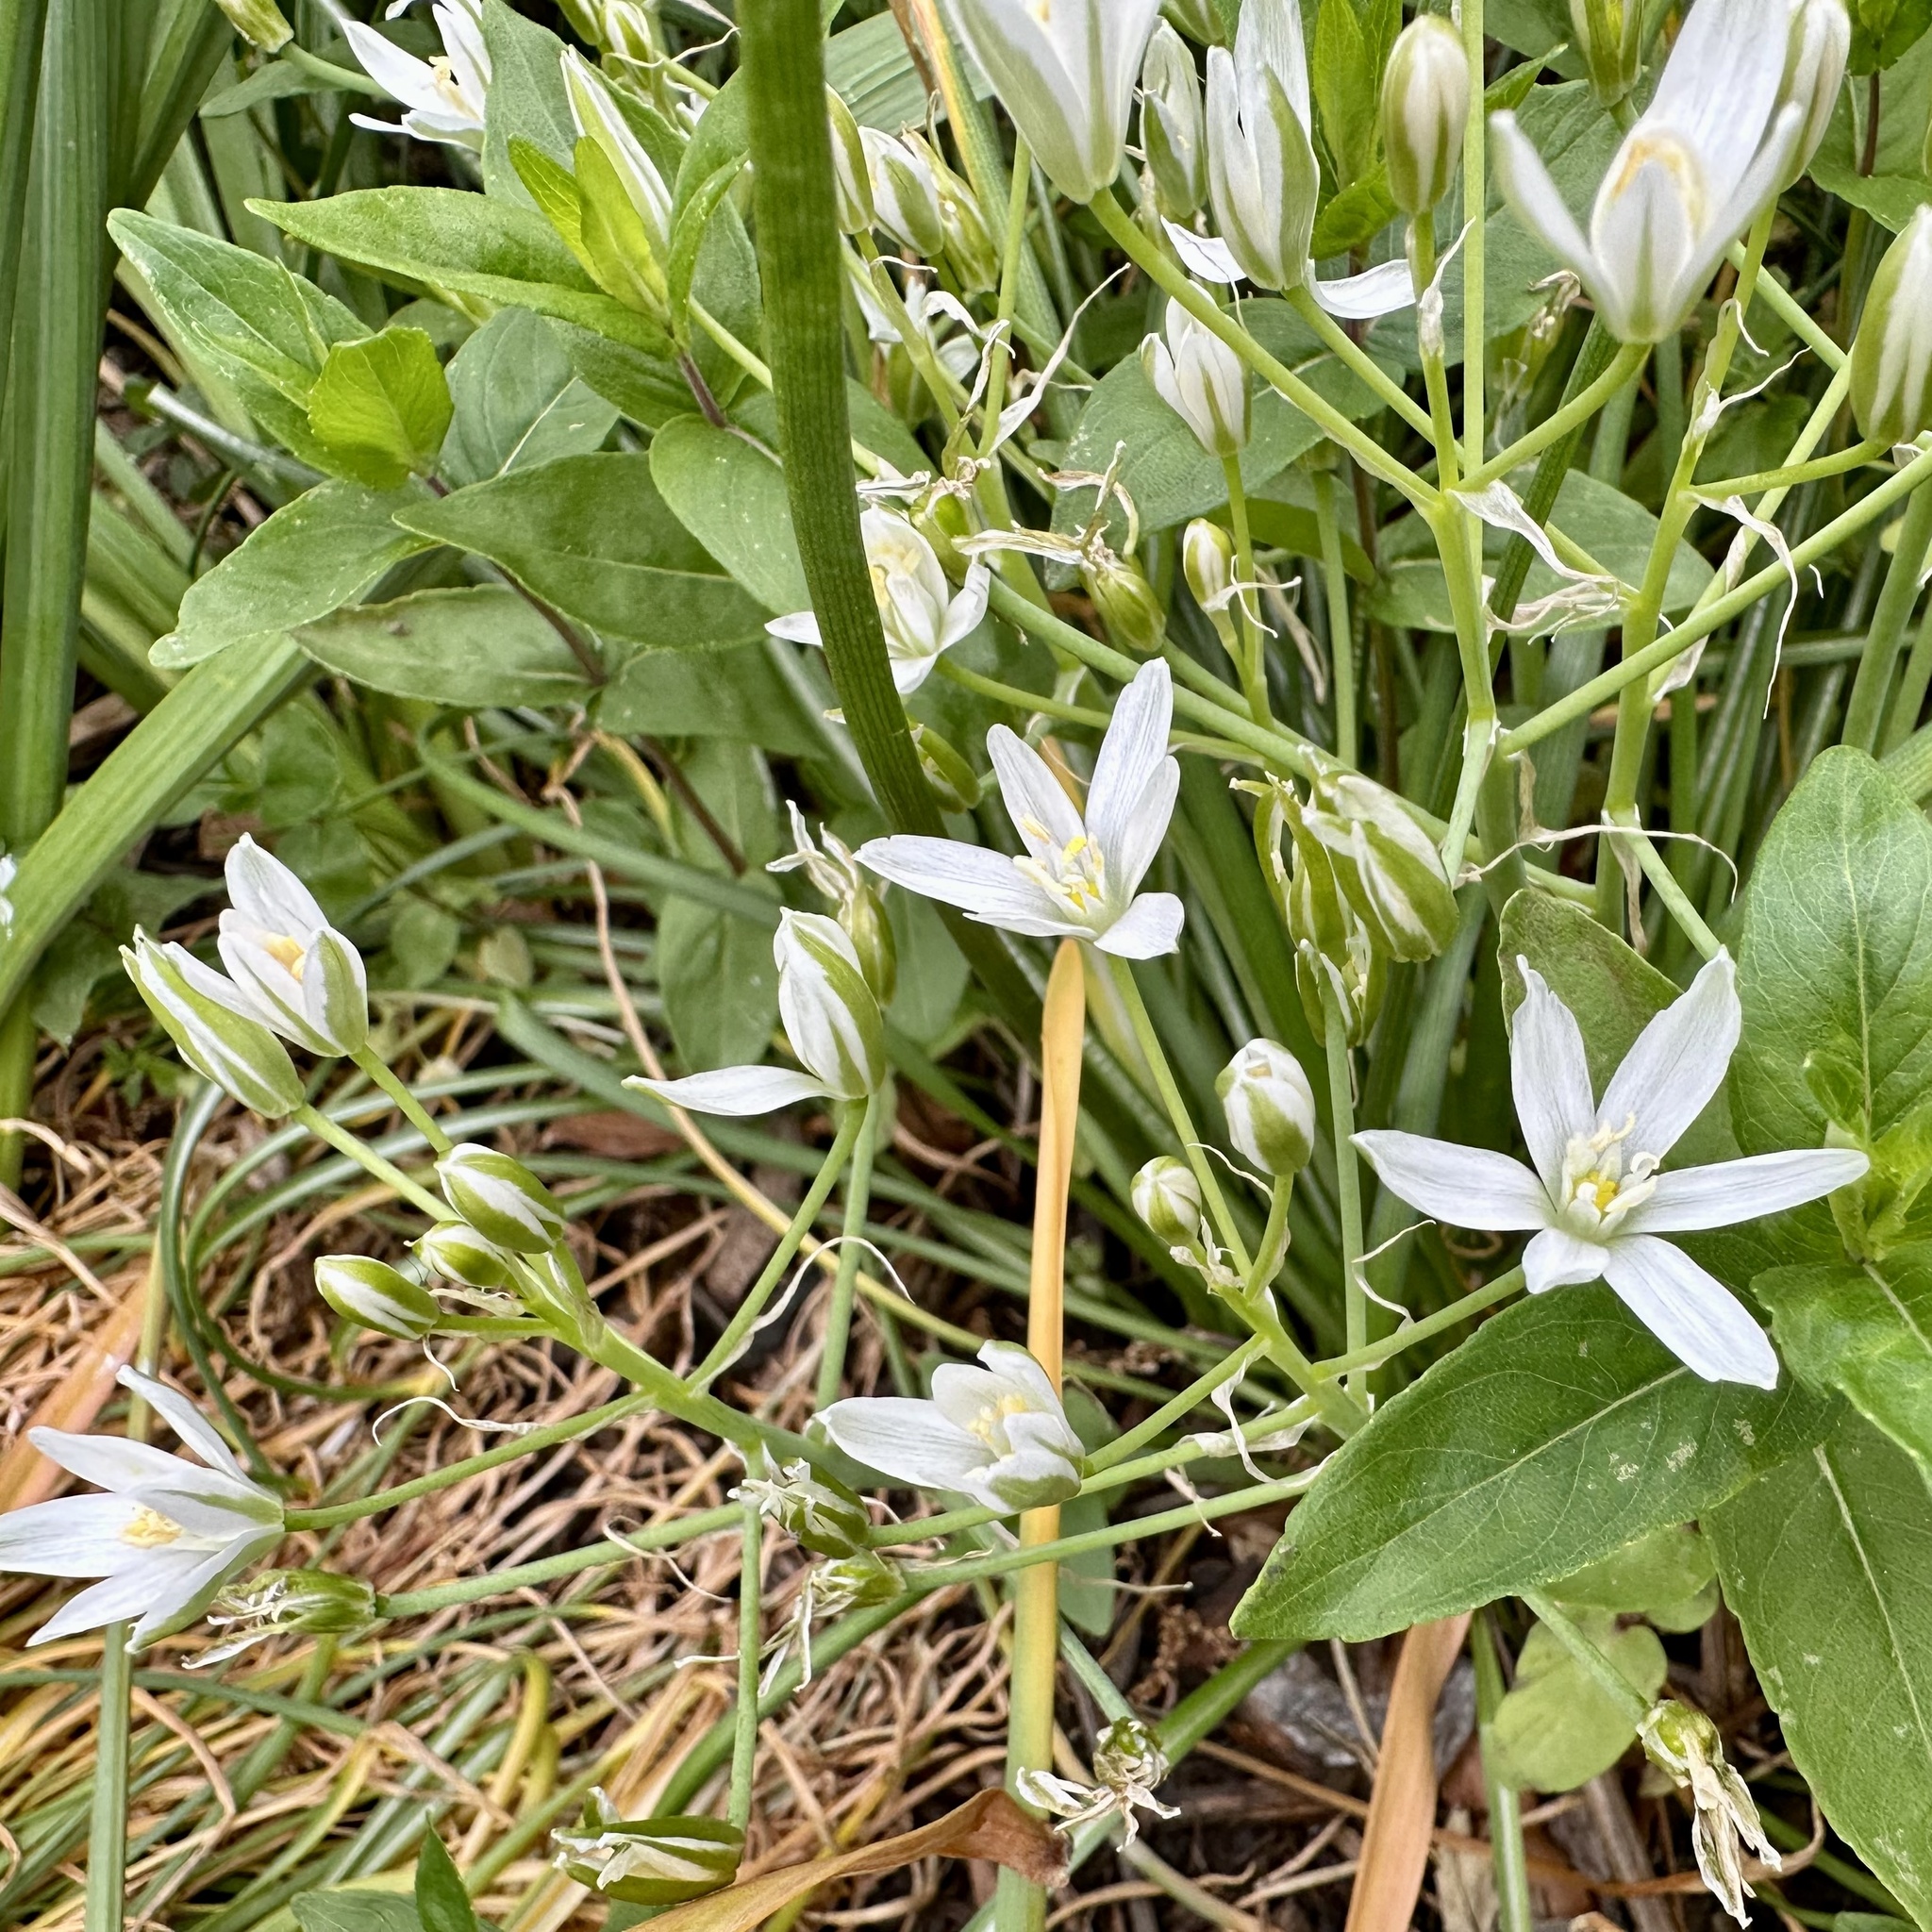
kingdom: Plantae
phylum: Tracheophyta
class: Liliopsida
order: Asparagales
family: Asparagaceae
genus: Ornithogalum
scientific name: Ornithogalum umbellatum
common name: Garden star-of-bethlehem
